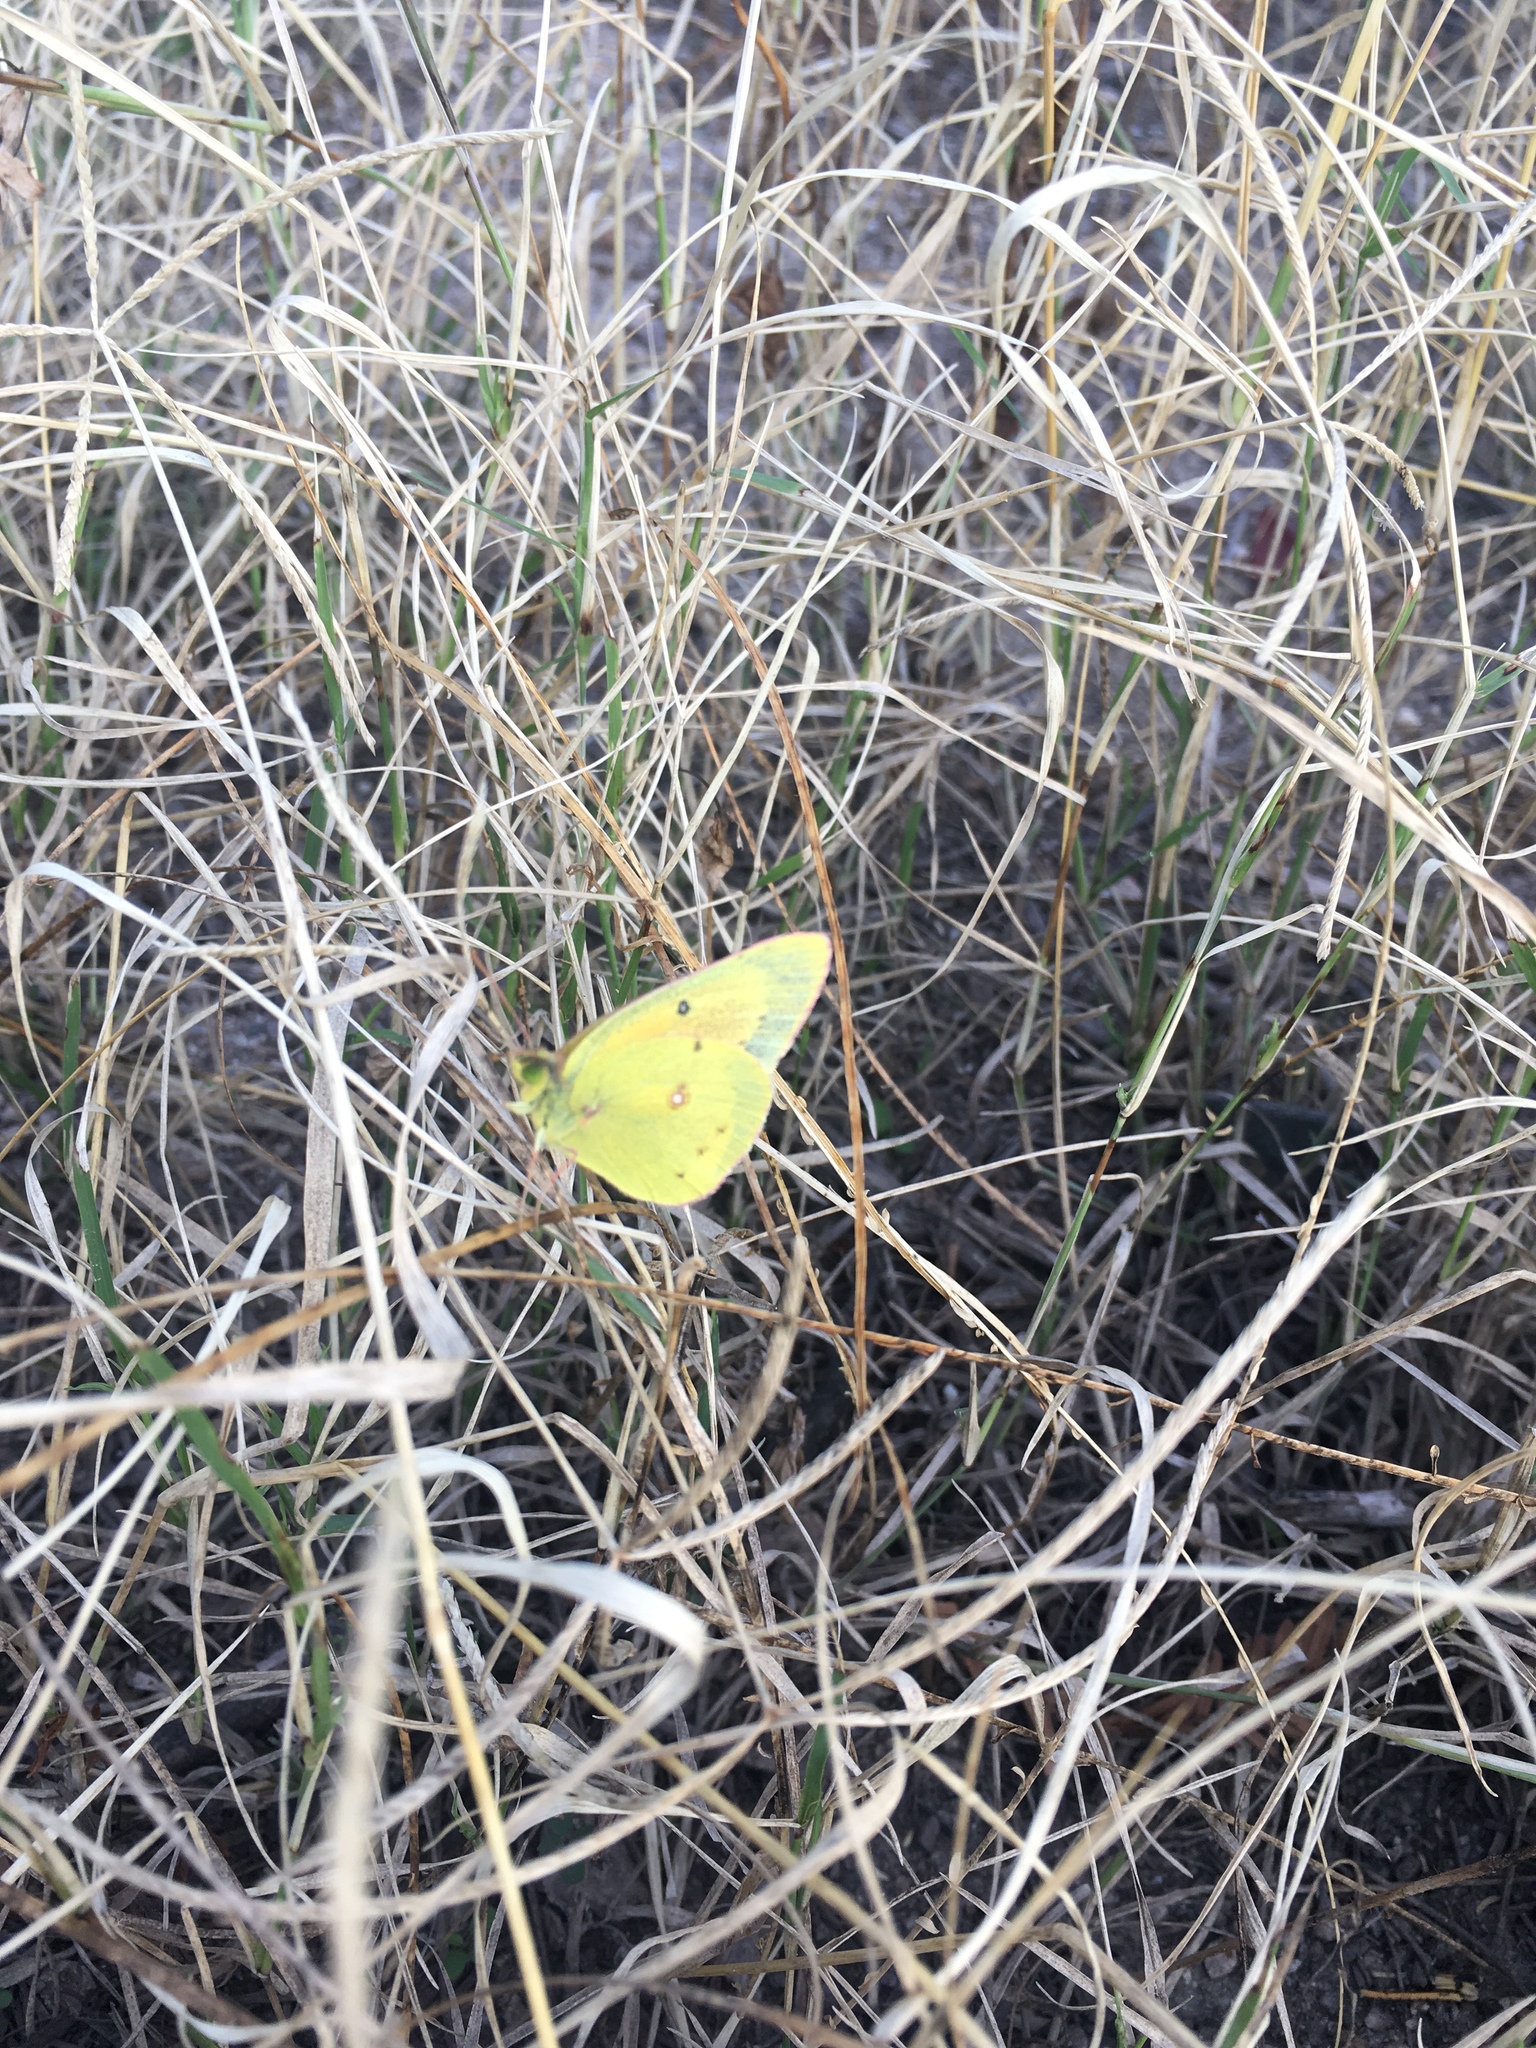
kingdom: Animalia
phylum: Arthropoda
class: Insecta
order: Lepidoptera
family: Pieridae
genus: Colias
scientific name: Colias eurytheme
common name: Alfalfa butterfly
